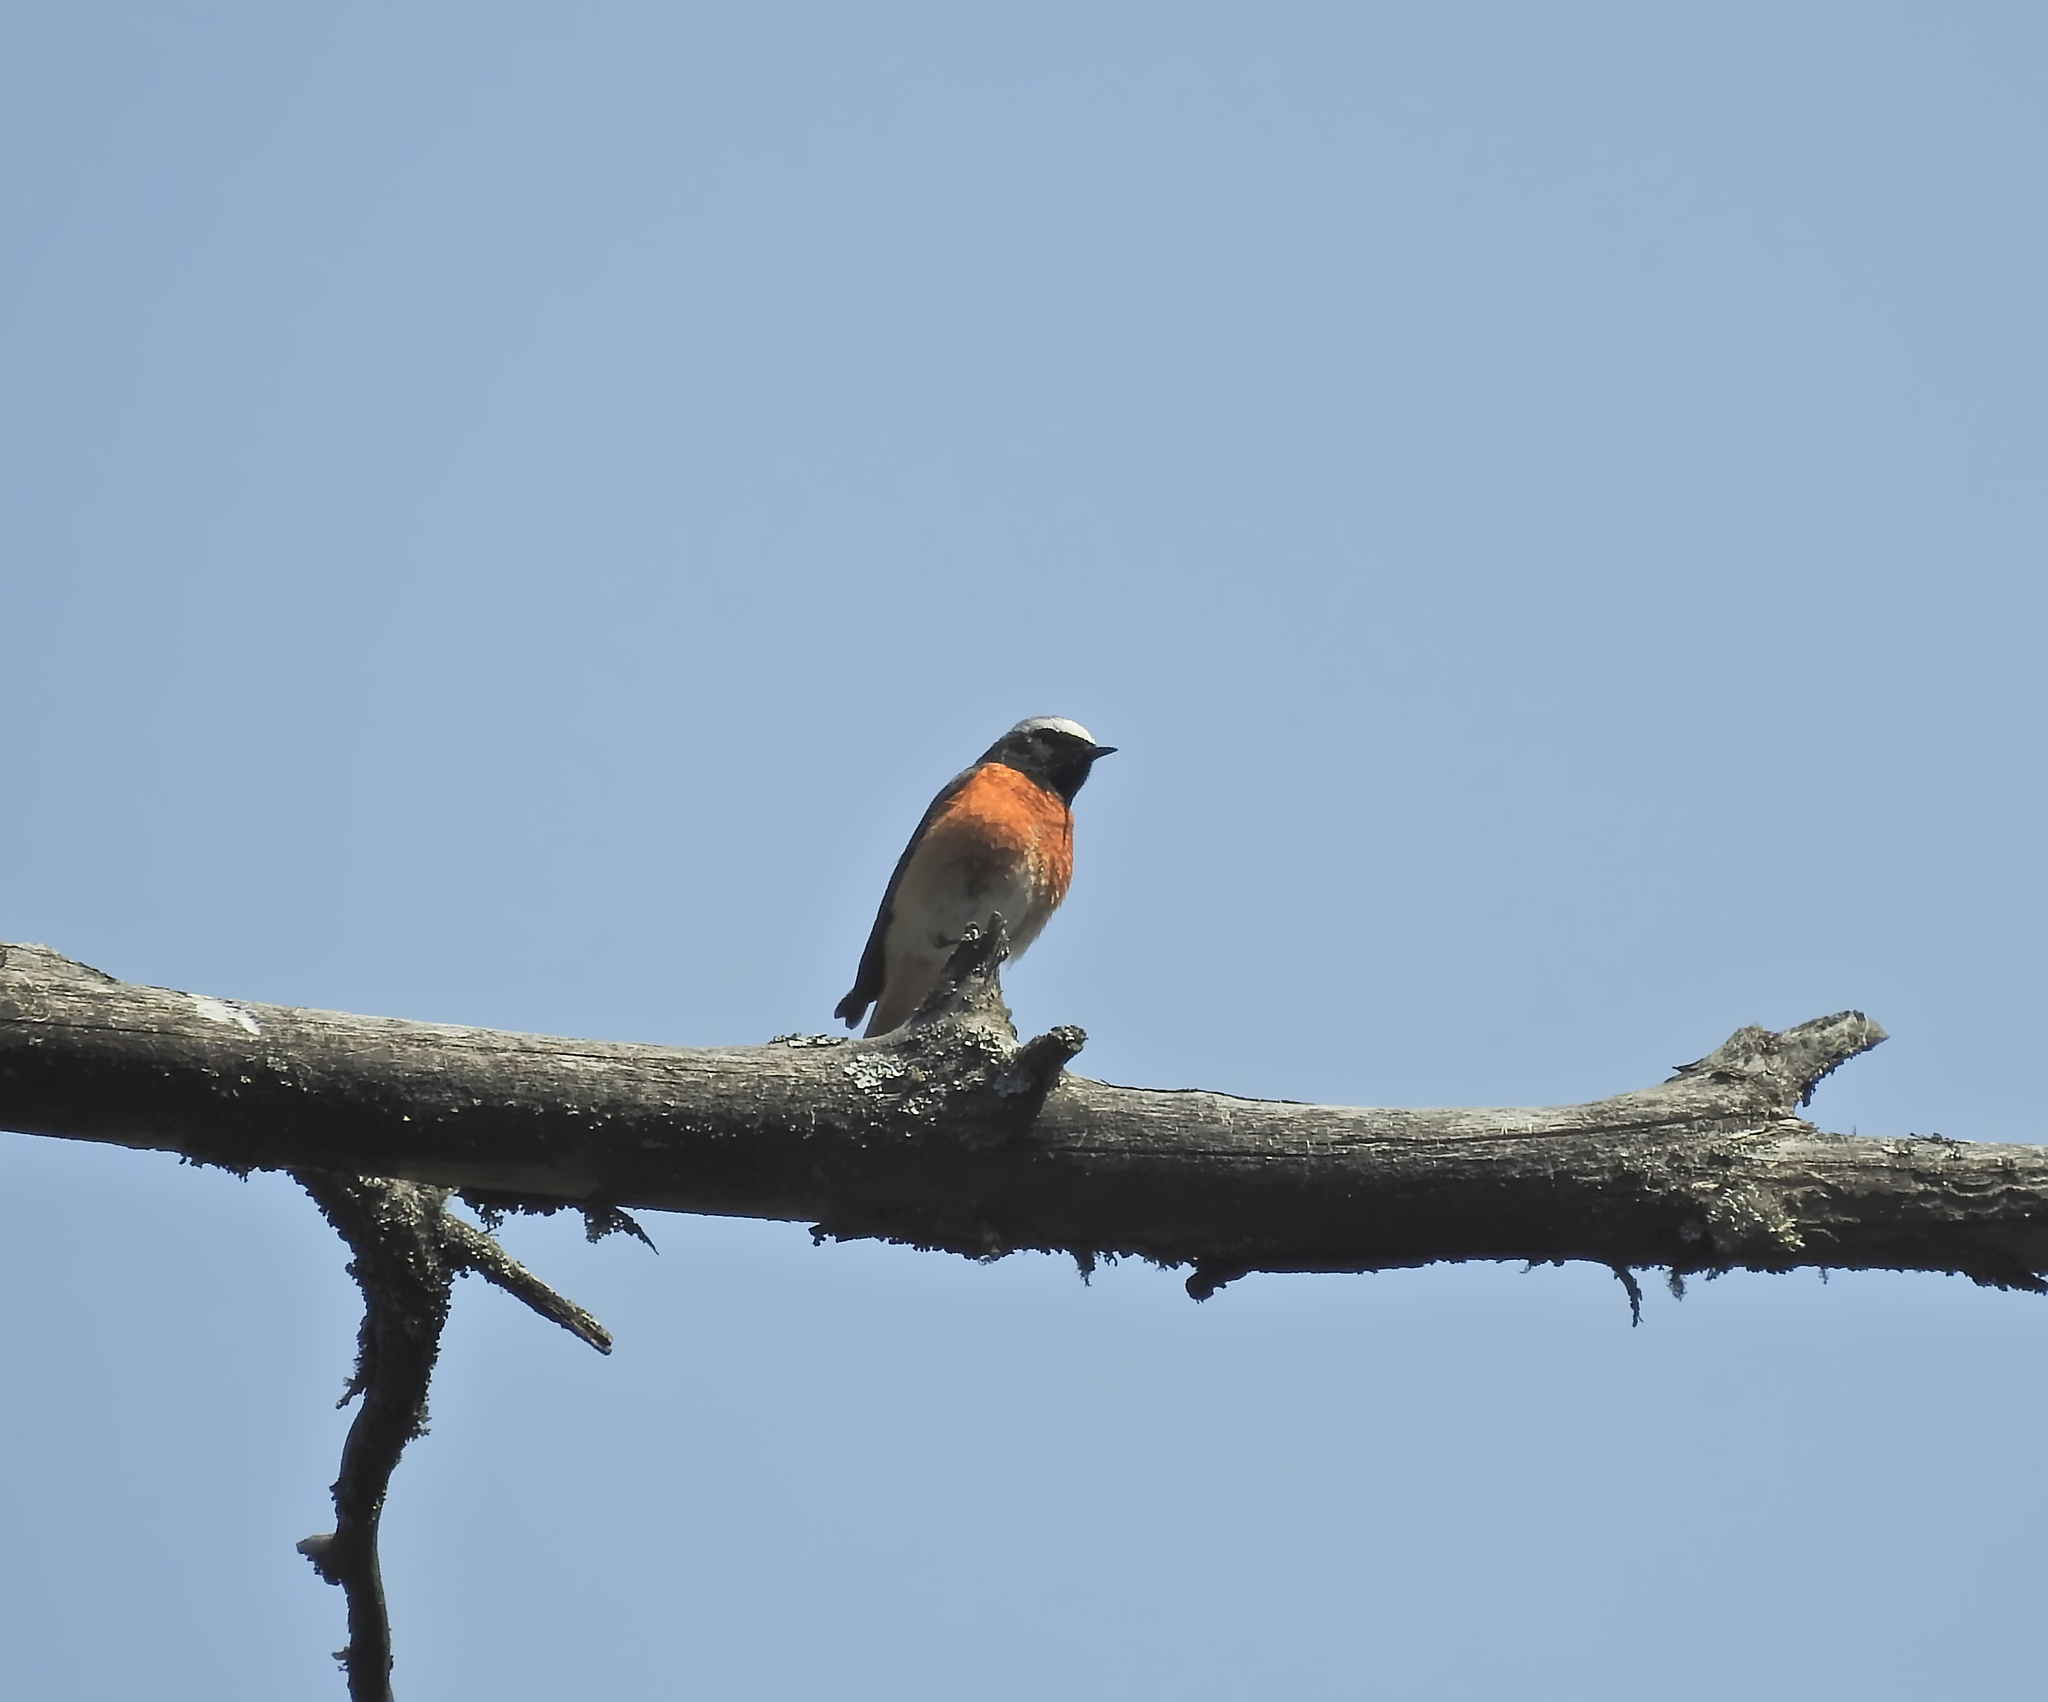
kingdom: Animalia
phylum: Chordata
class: Aves
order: Passeriformes
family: Muscicapidae
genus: Phoenicurus
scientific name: Phoenicurus phoenicurus
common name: Common redstart
